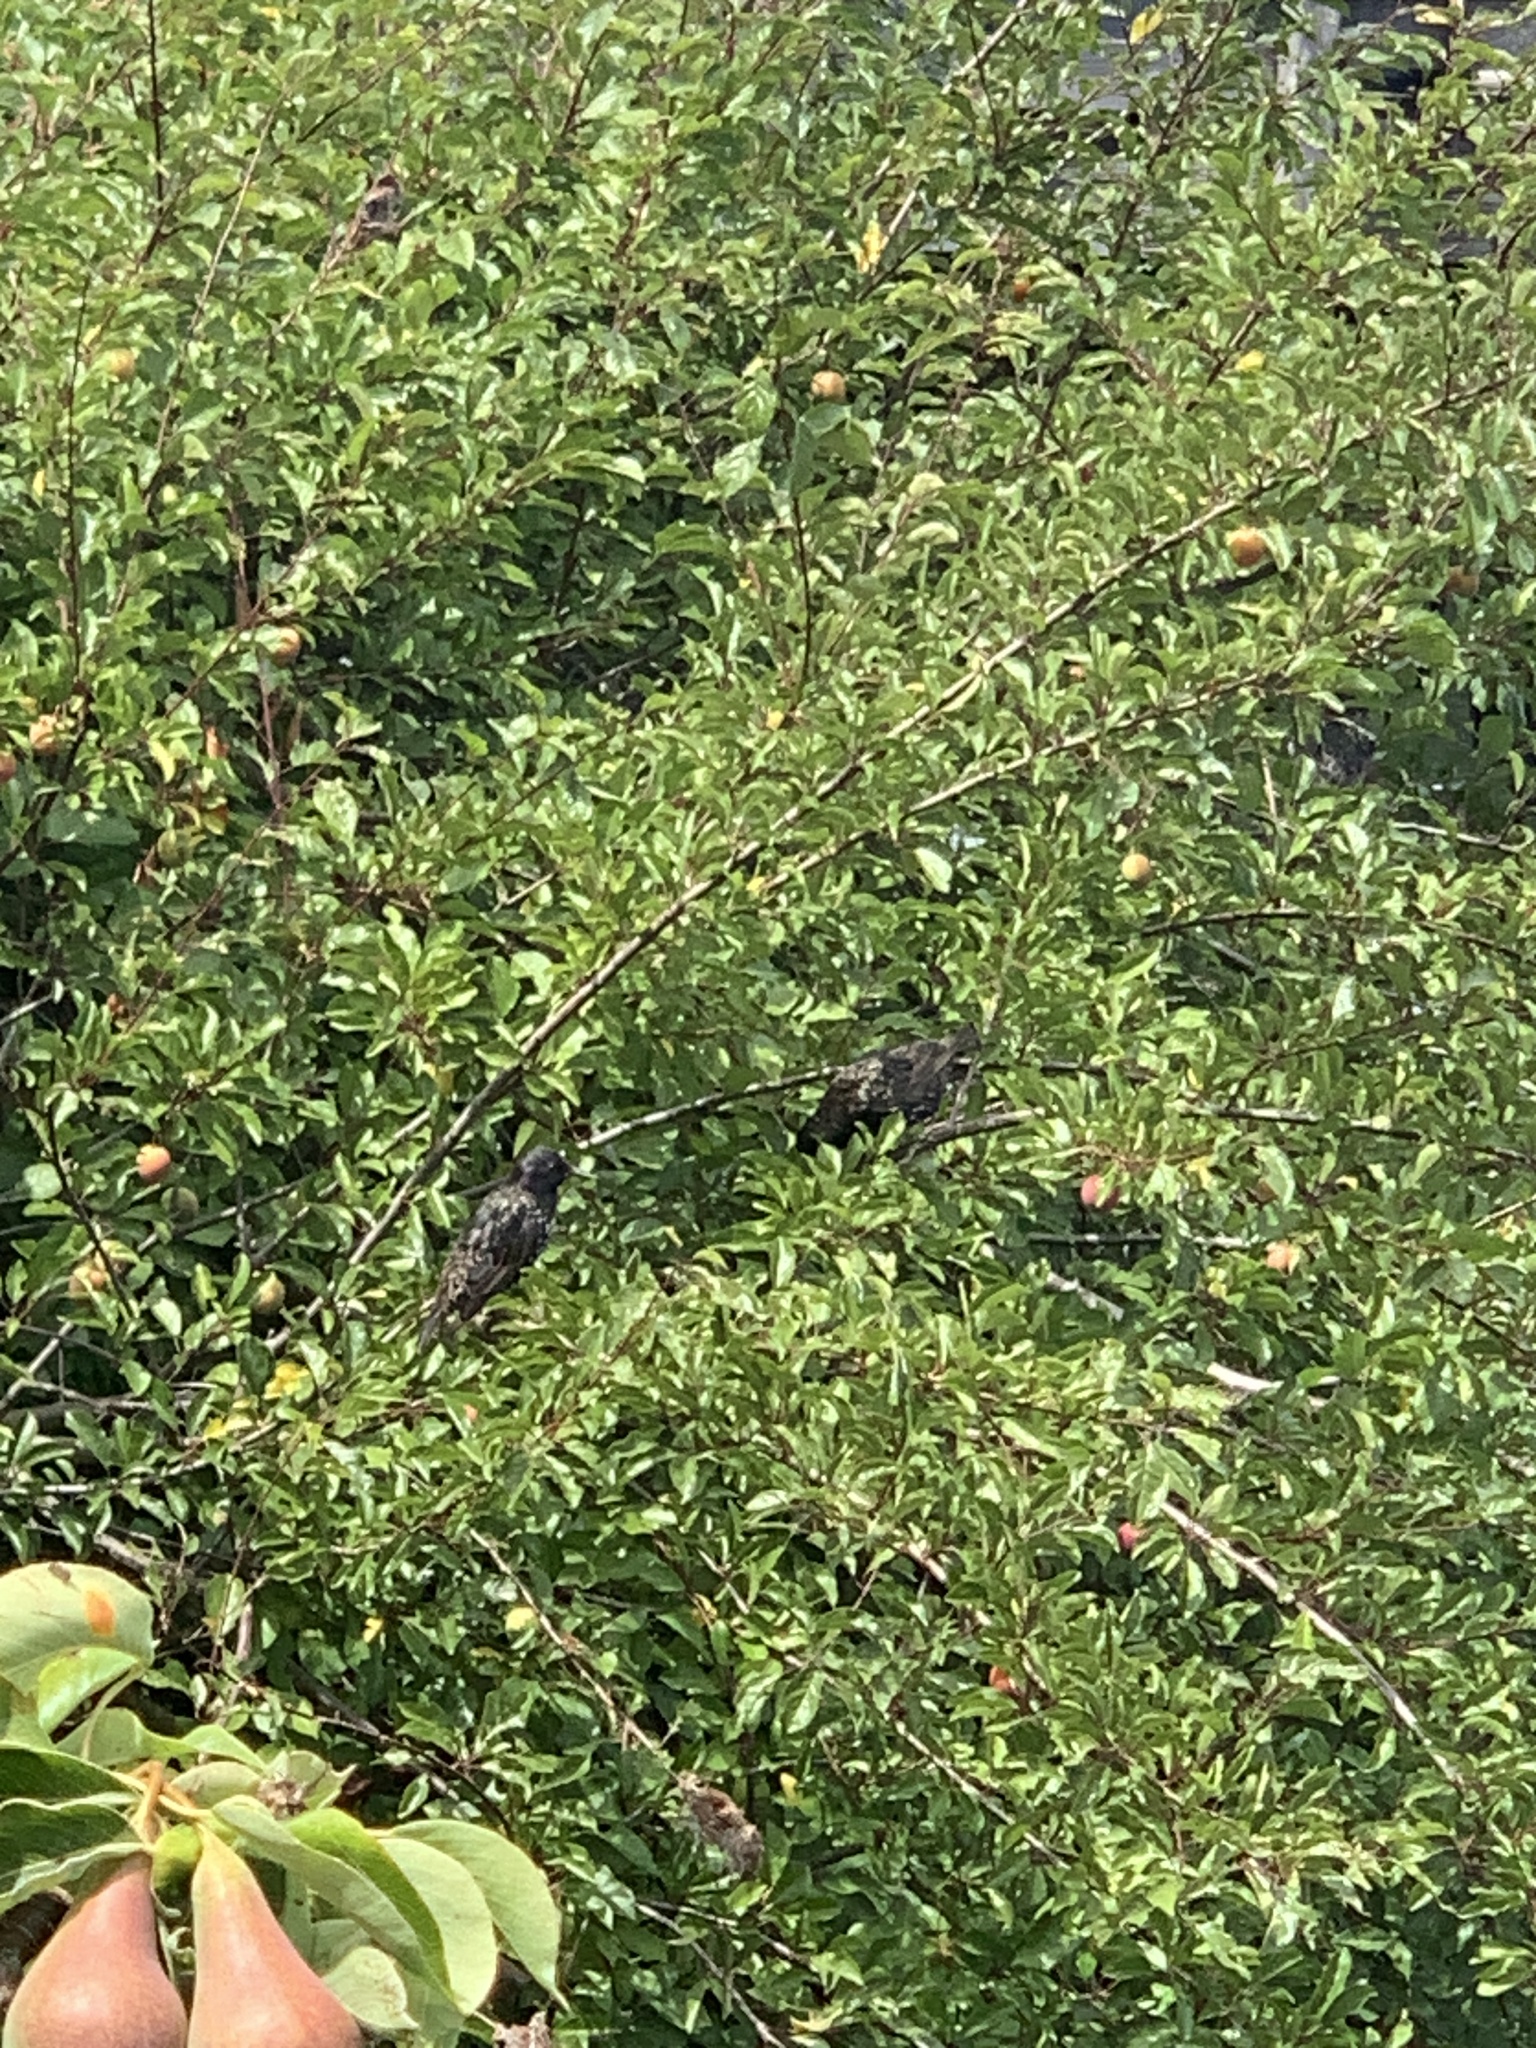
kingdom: Animalia
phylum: Chordata
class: Aves
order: Passeriformes
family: Sturnidae
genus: Sturnus
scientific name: Sturnus vulgaris
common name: Common starling
